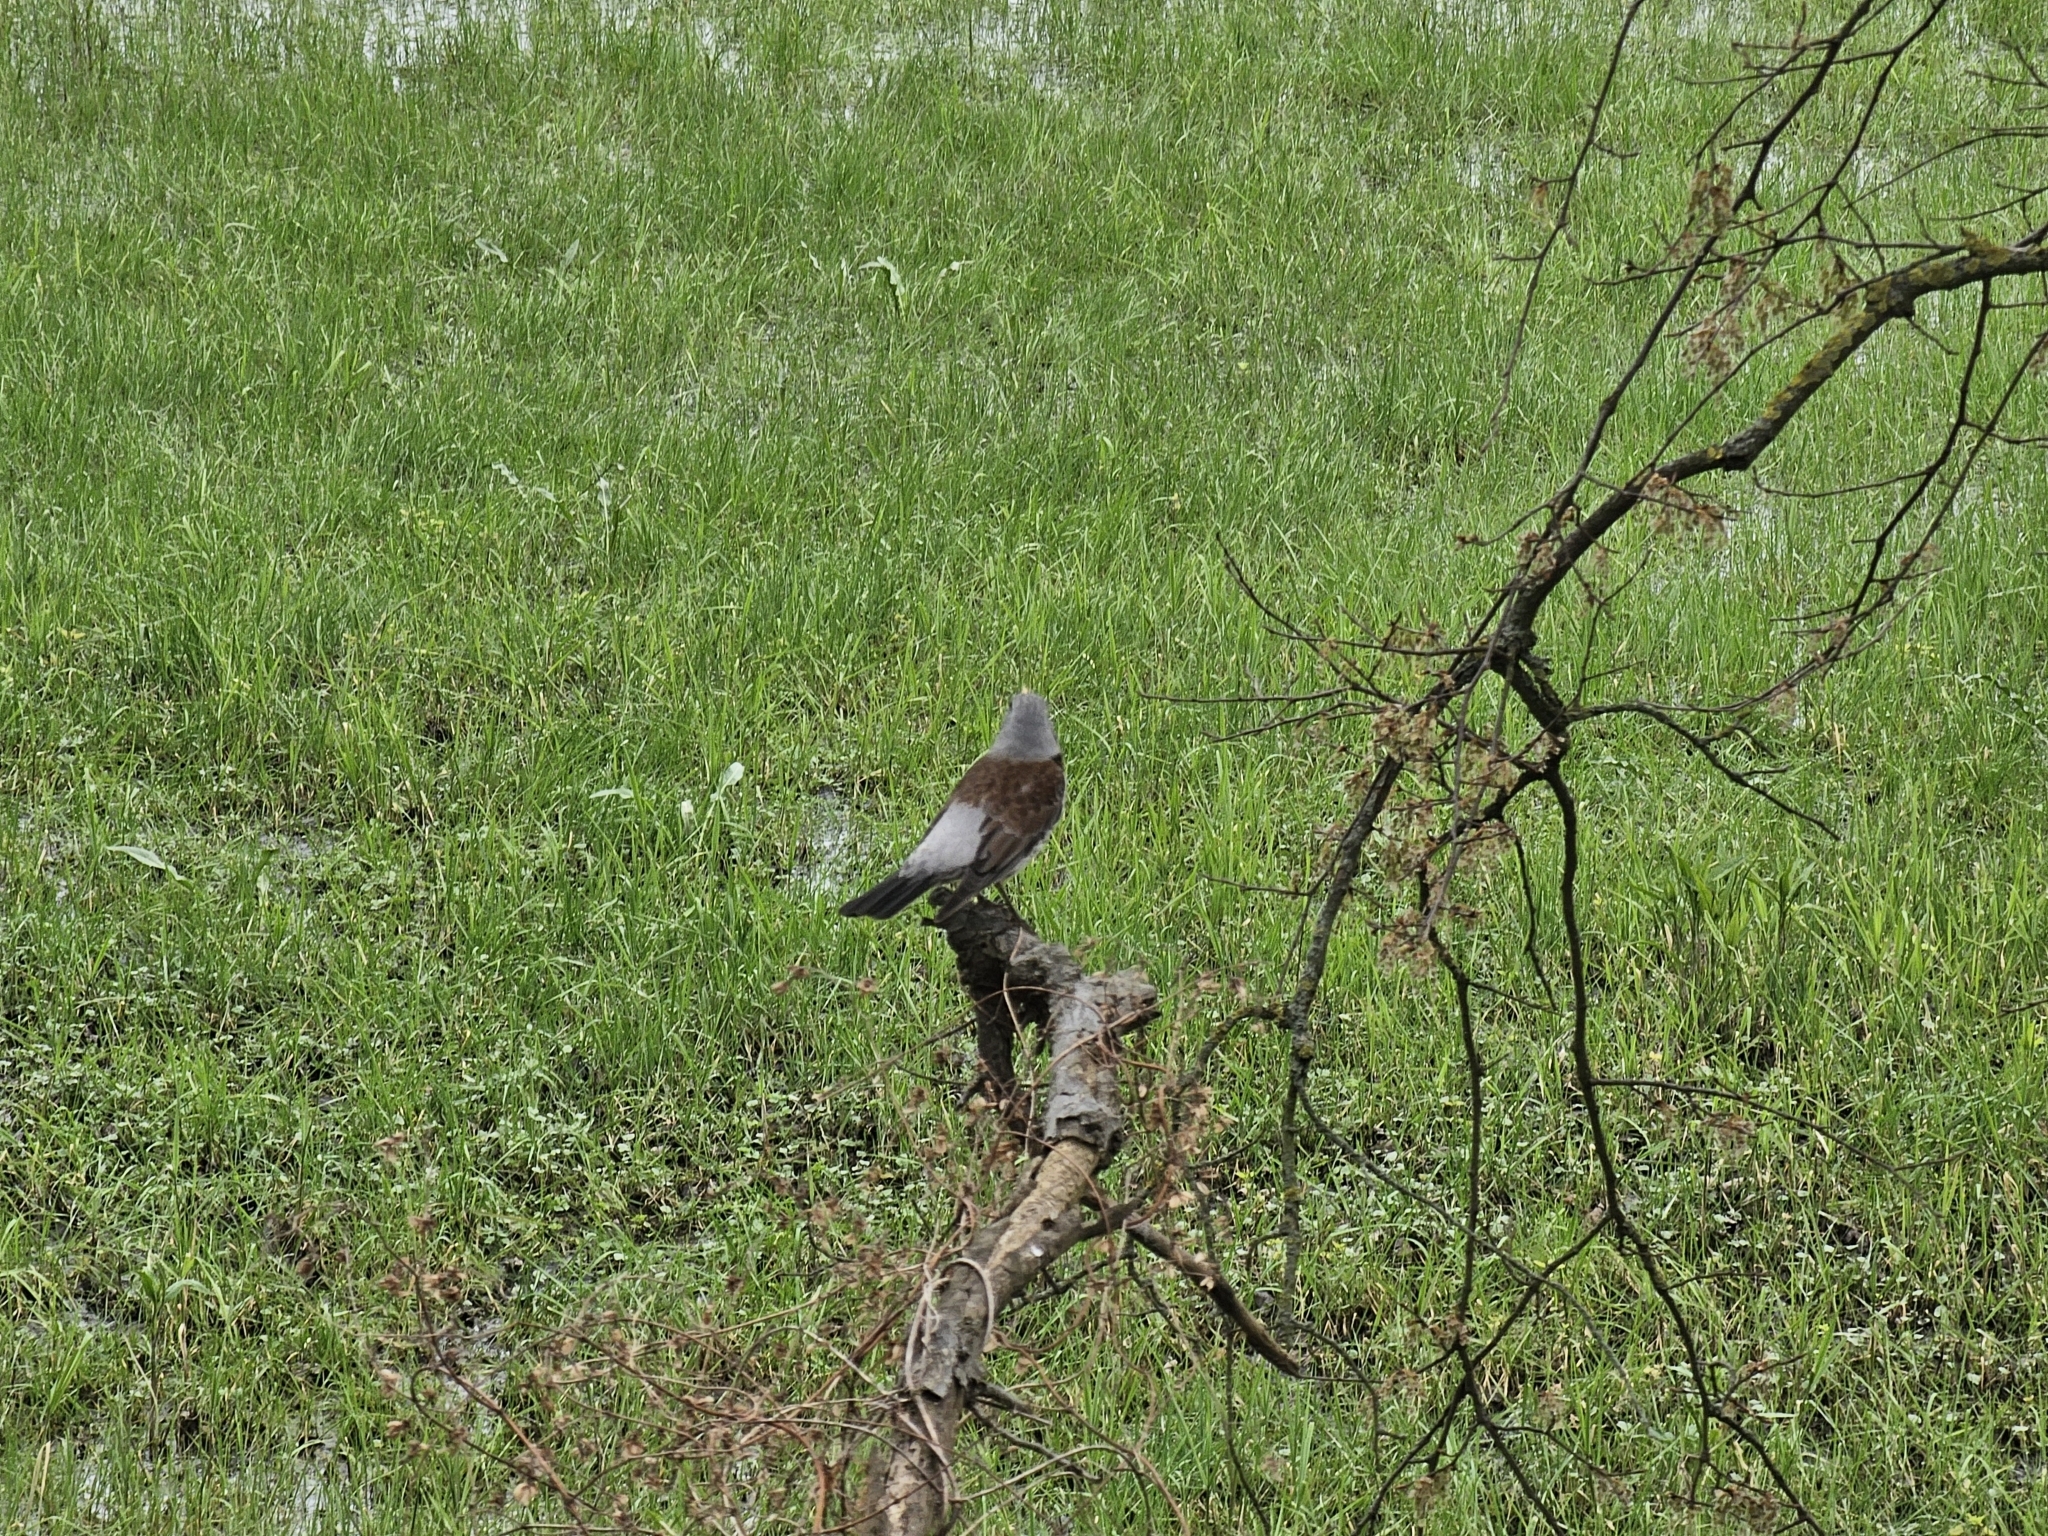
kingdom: Animalia
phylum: Chordata
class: Aves
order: Passeriformes
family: Turdidae
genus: Turdus
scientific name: Turdus pilaris
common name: Fieldfare
